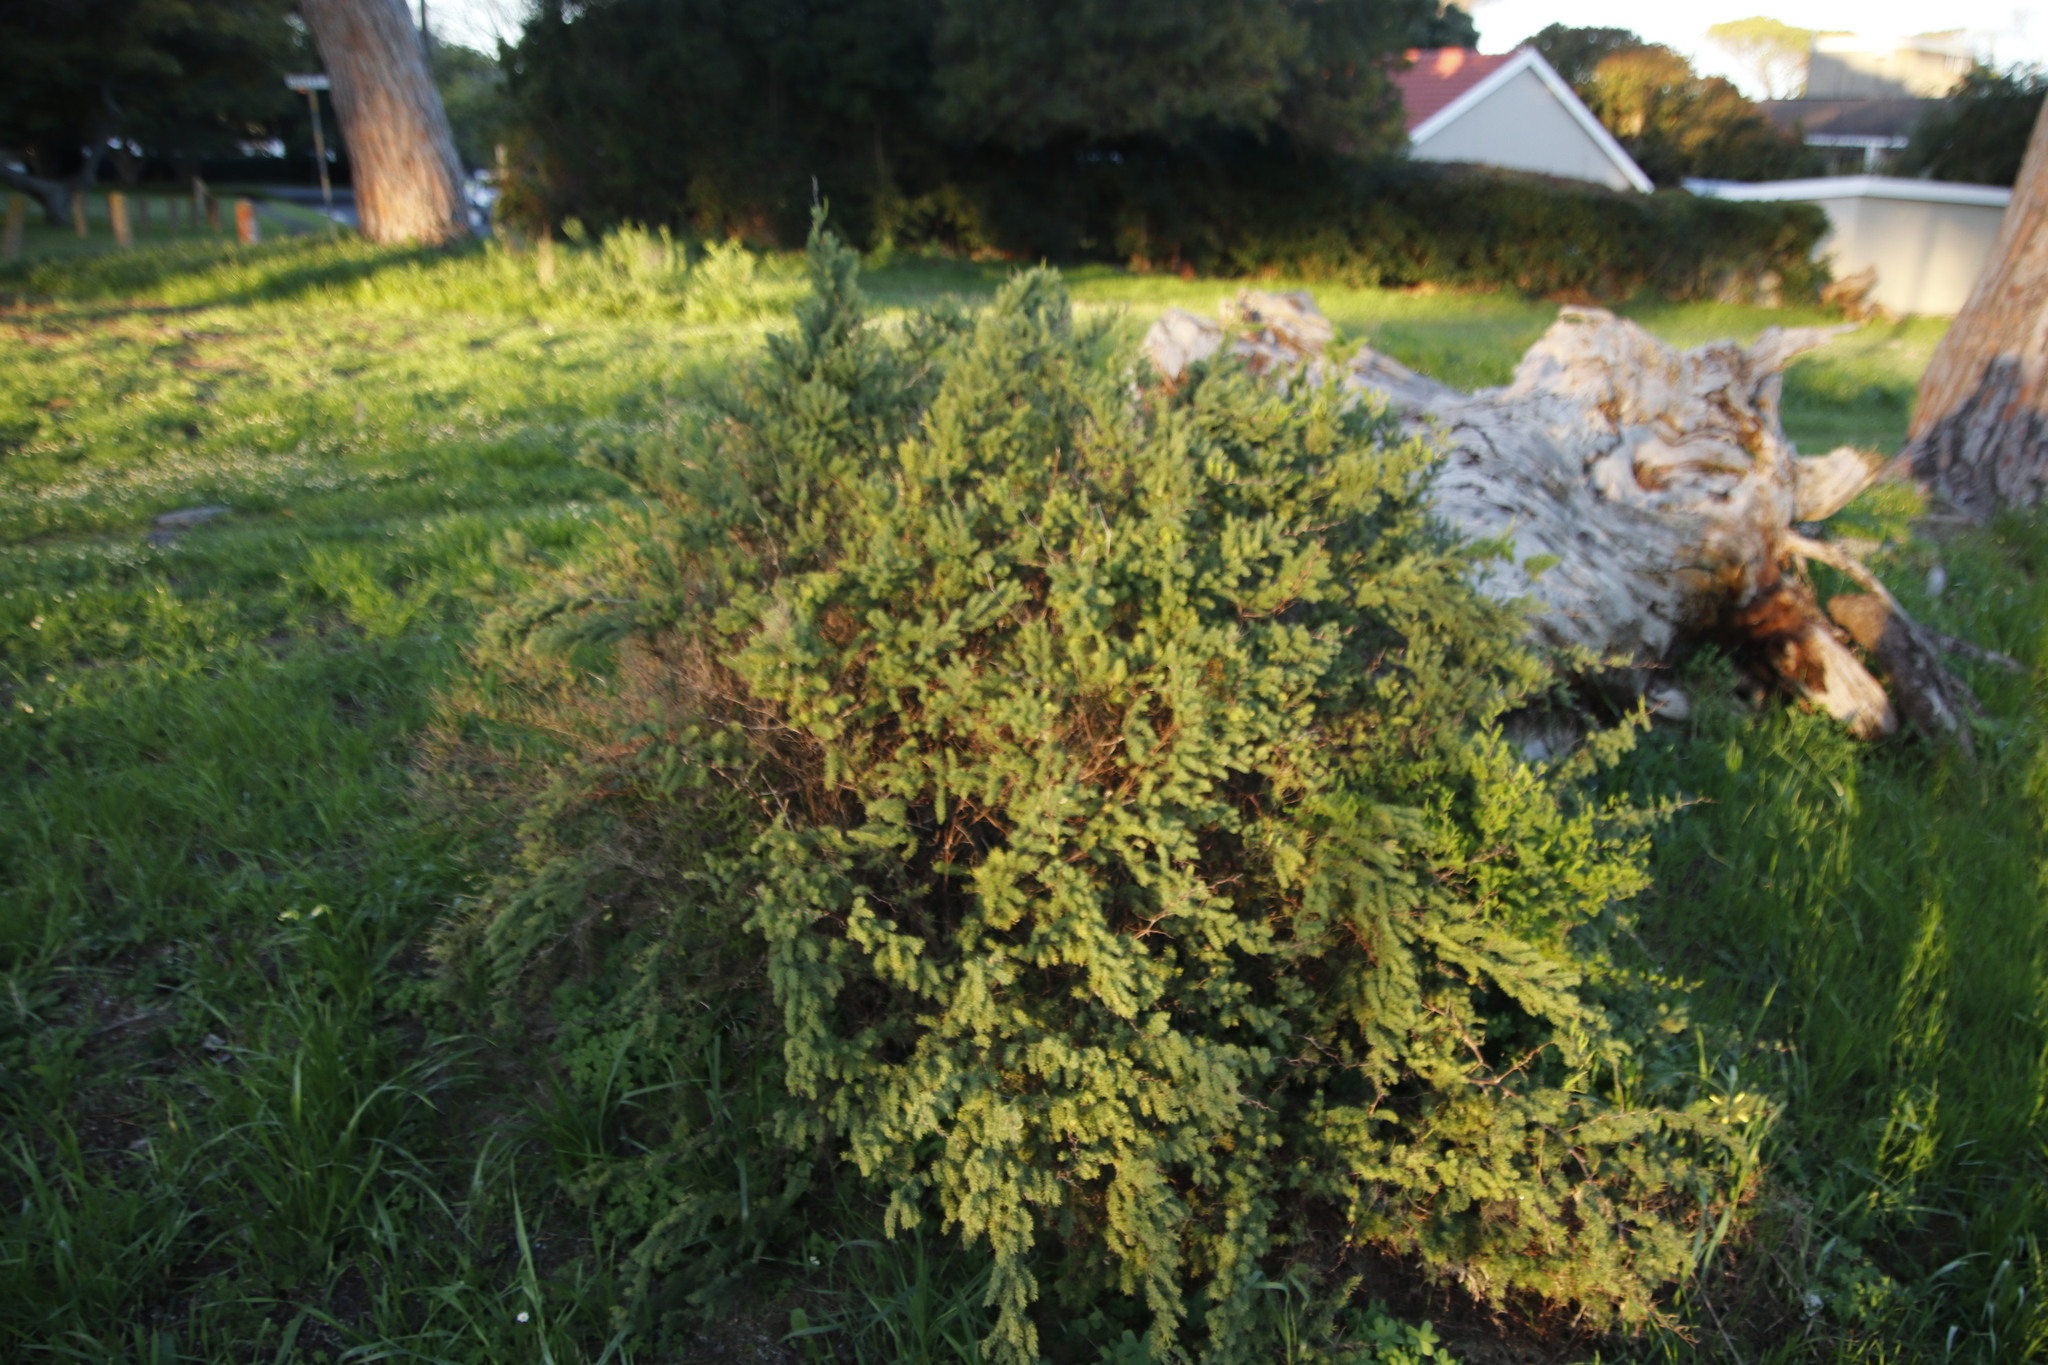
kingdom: Plantae
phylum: Tracheophyta
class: Liliopsida
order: Asparagales
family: Asparagaceae
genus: Asparagus
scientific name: Asparagus rubicundus
